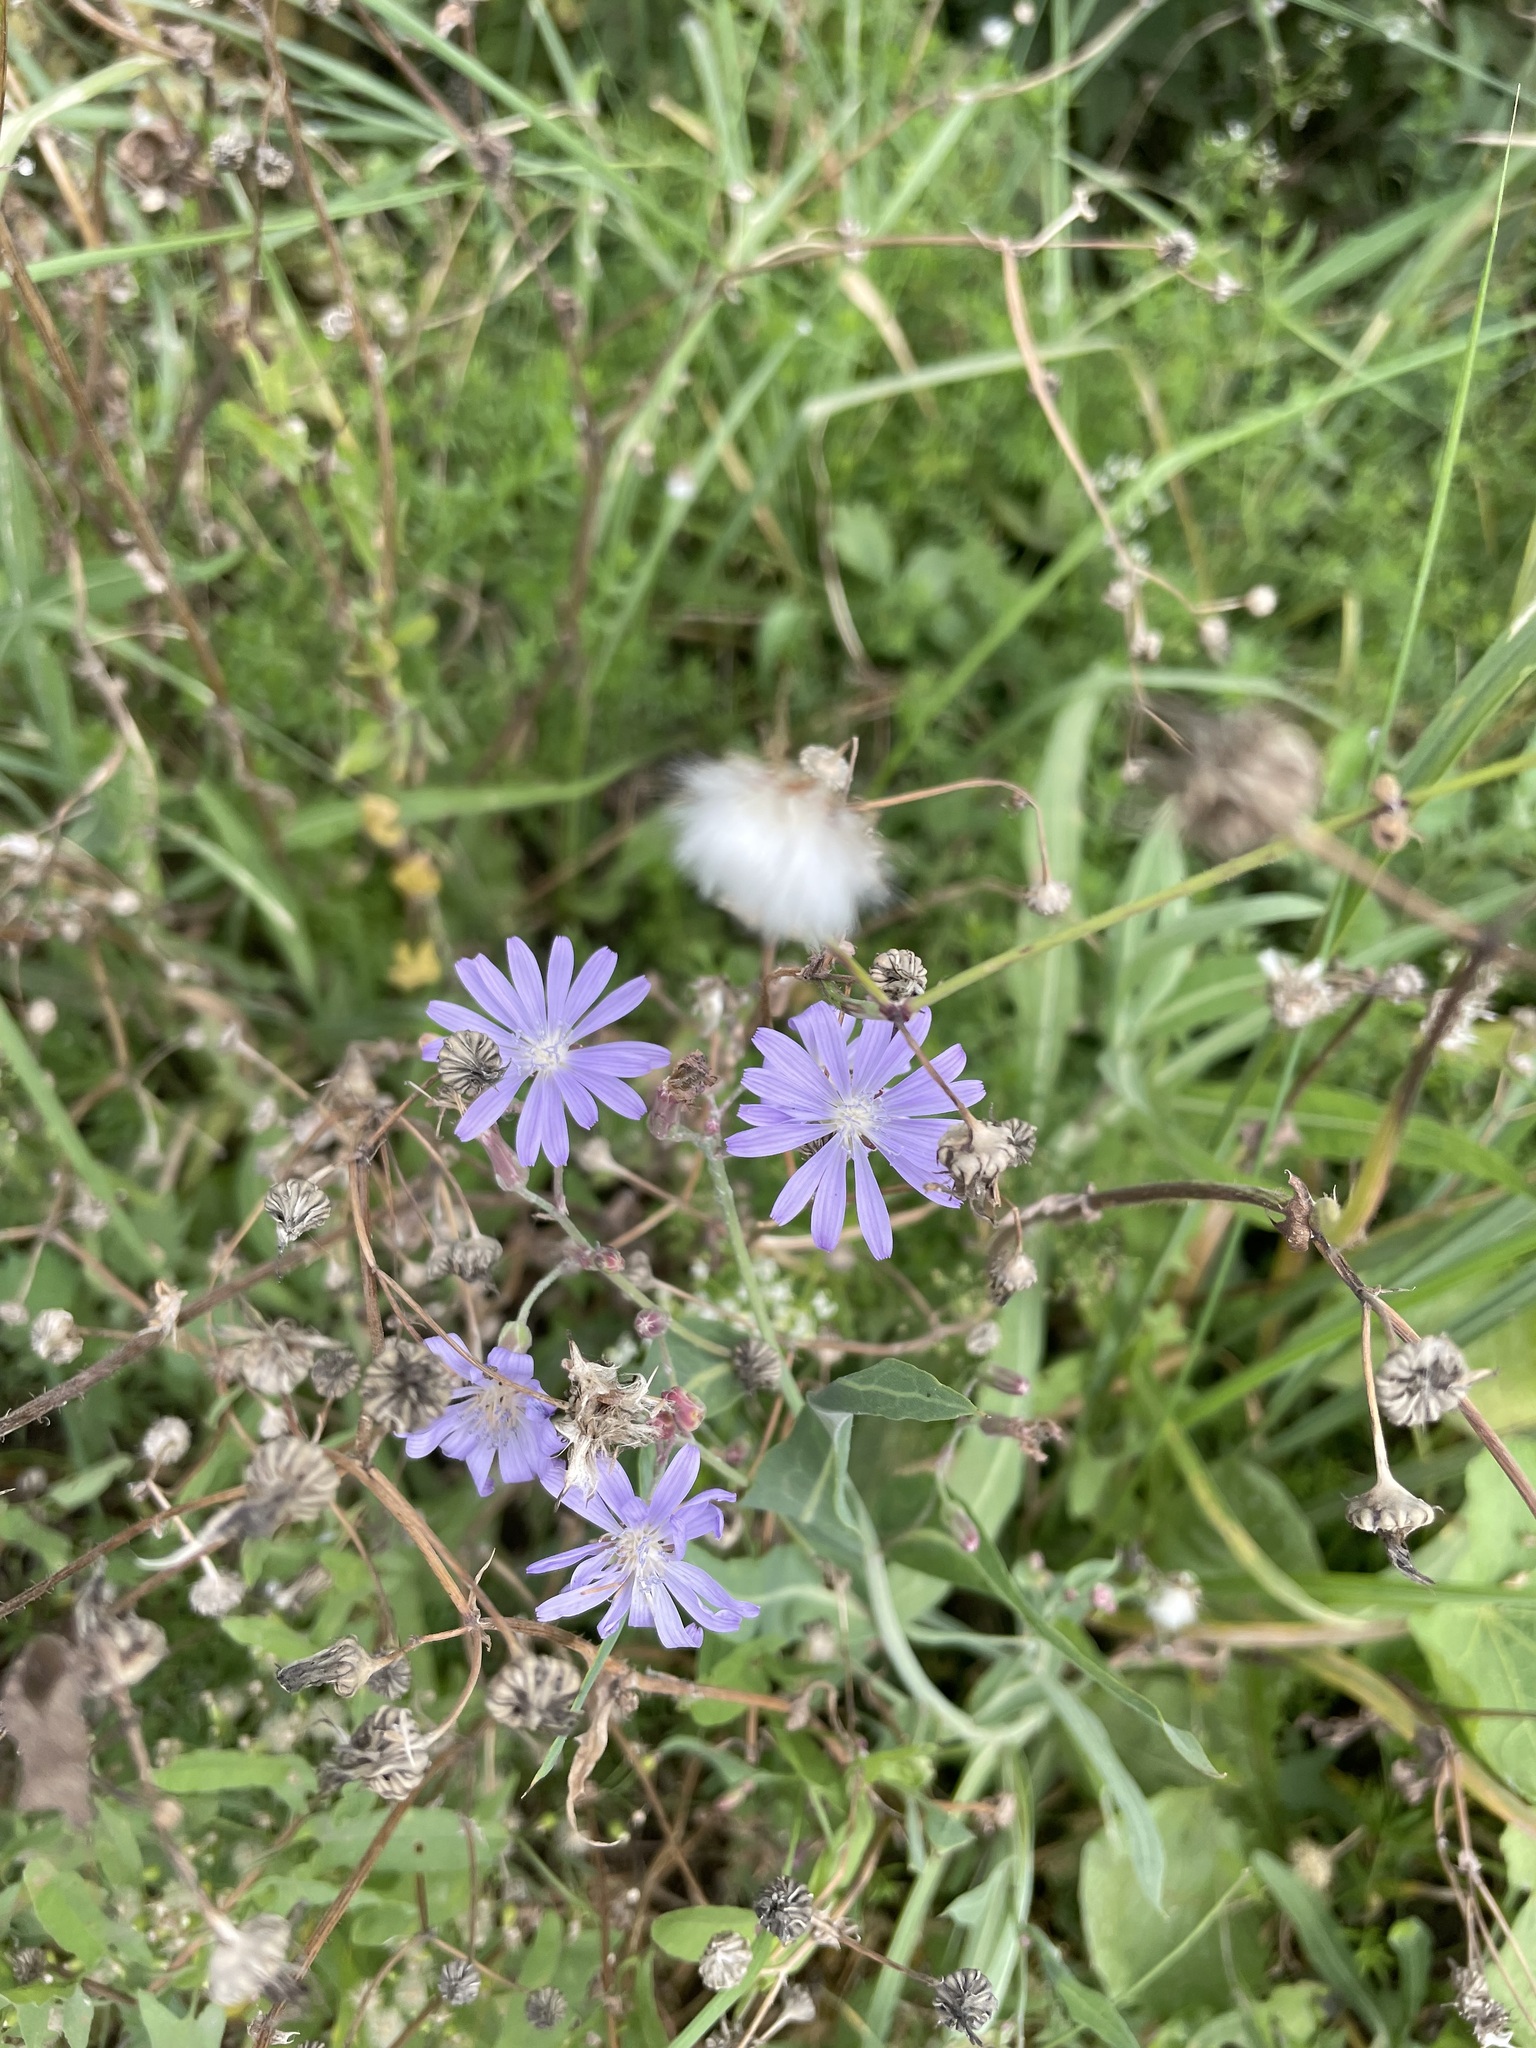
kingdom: Plantae
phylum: Tracheophyta
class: Magnoliopsida
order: Asterales
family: Asteraceae
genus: Lactuca
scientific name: Lactuca tatarica
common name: Blue lettuce
